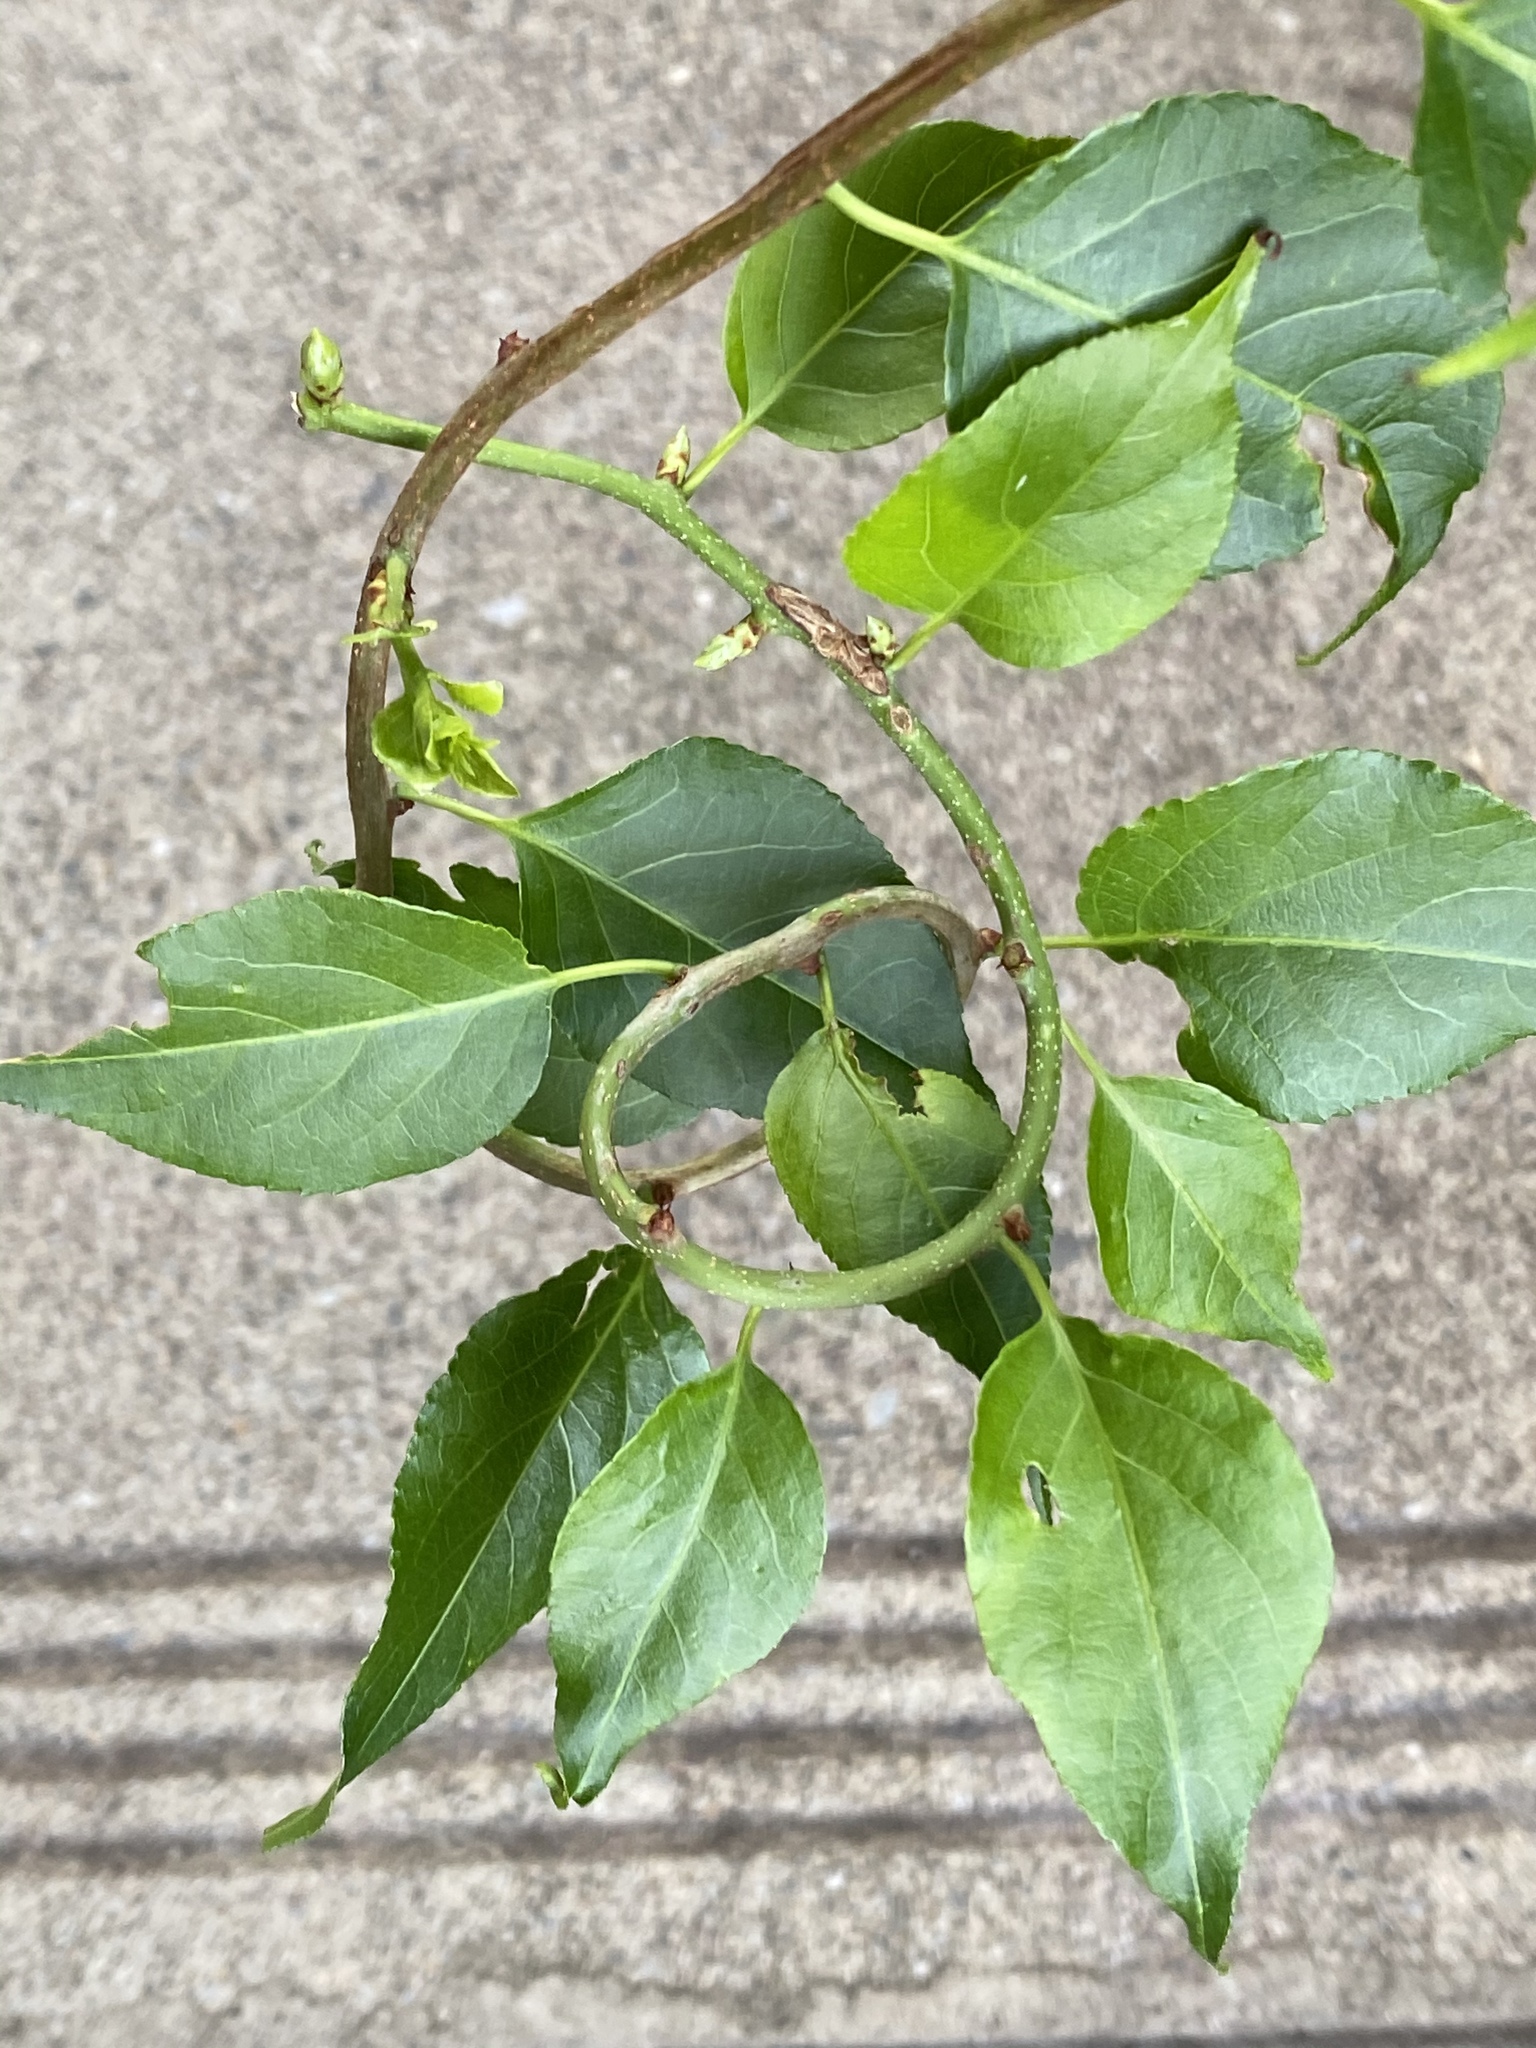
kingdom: Plantae
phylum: Tracheophyta
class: Magnoliopsida
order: Celastrales
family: Celastraceae
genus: Celastrus
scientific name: Celastrus orbiculatus
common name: Oriental bittersweet
